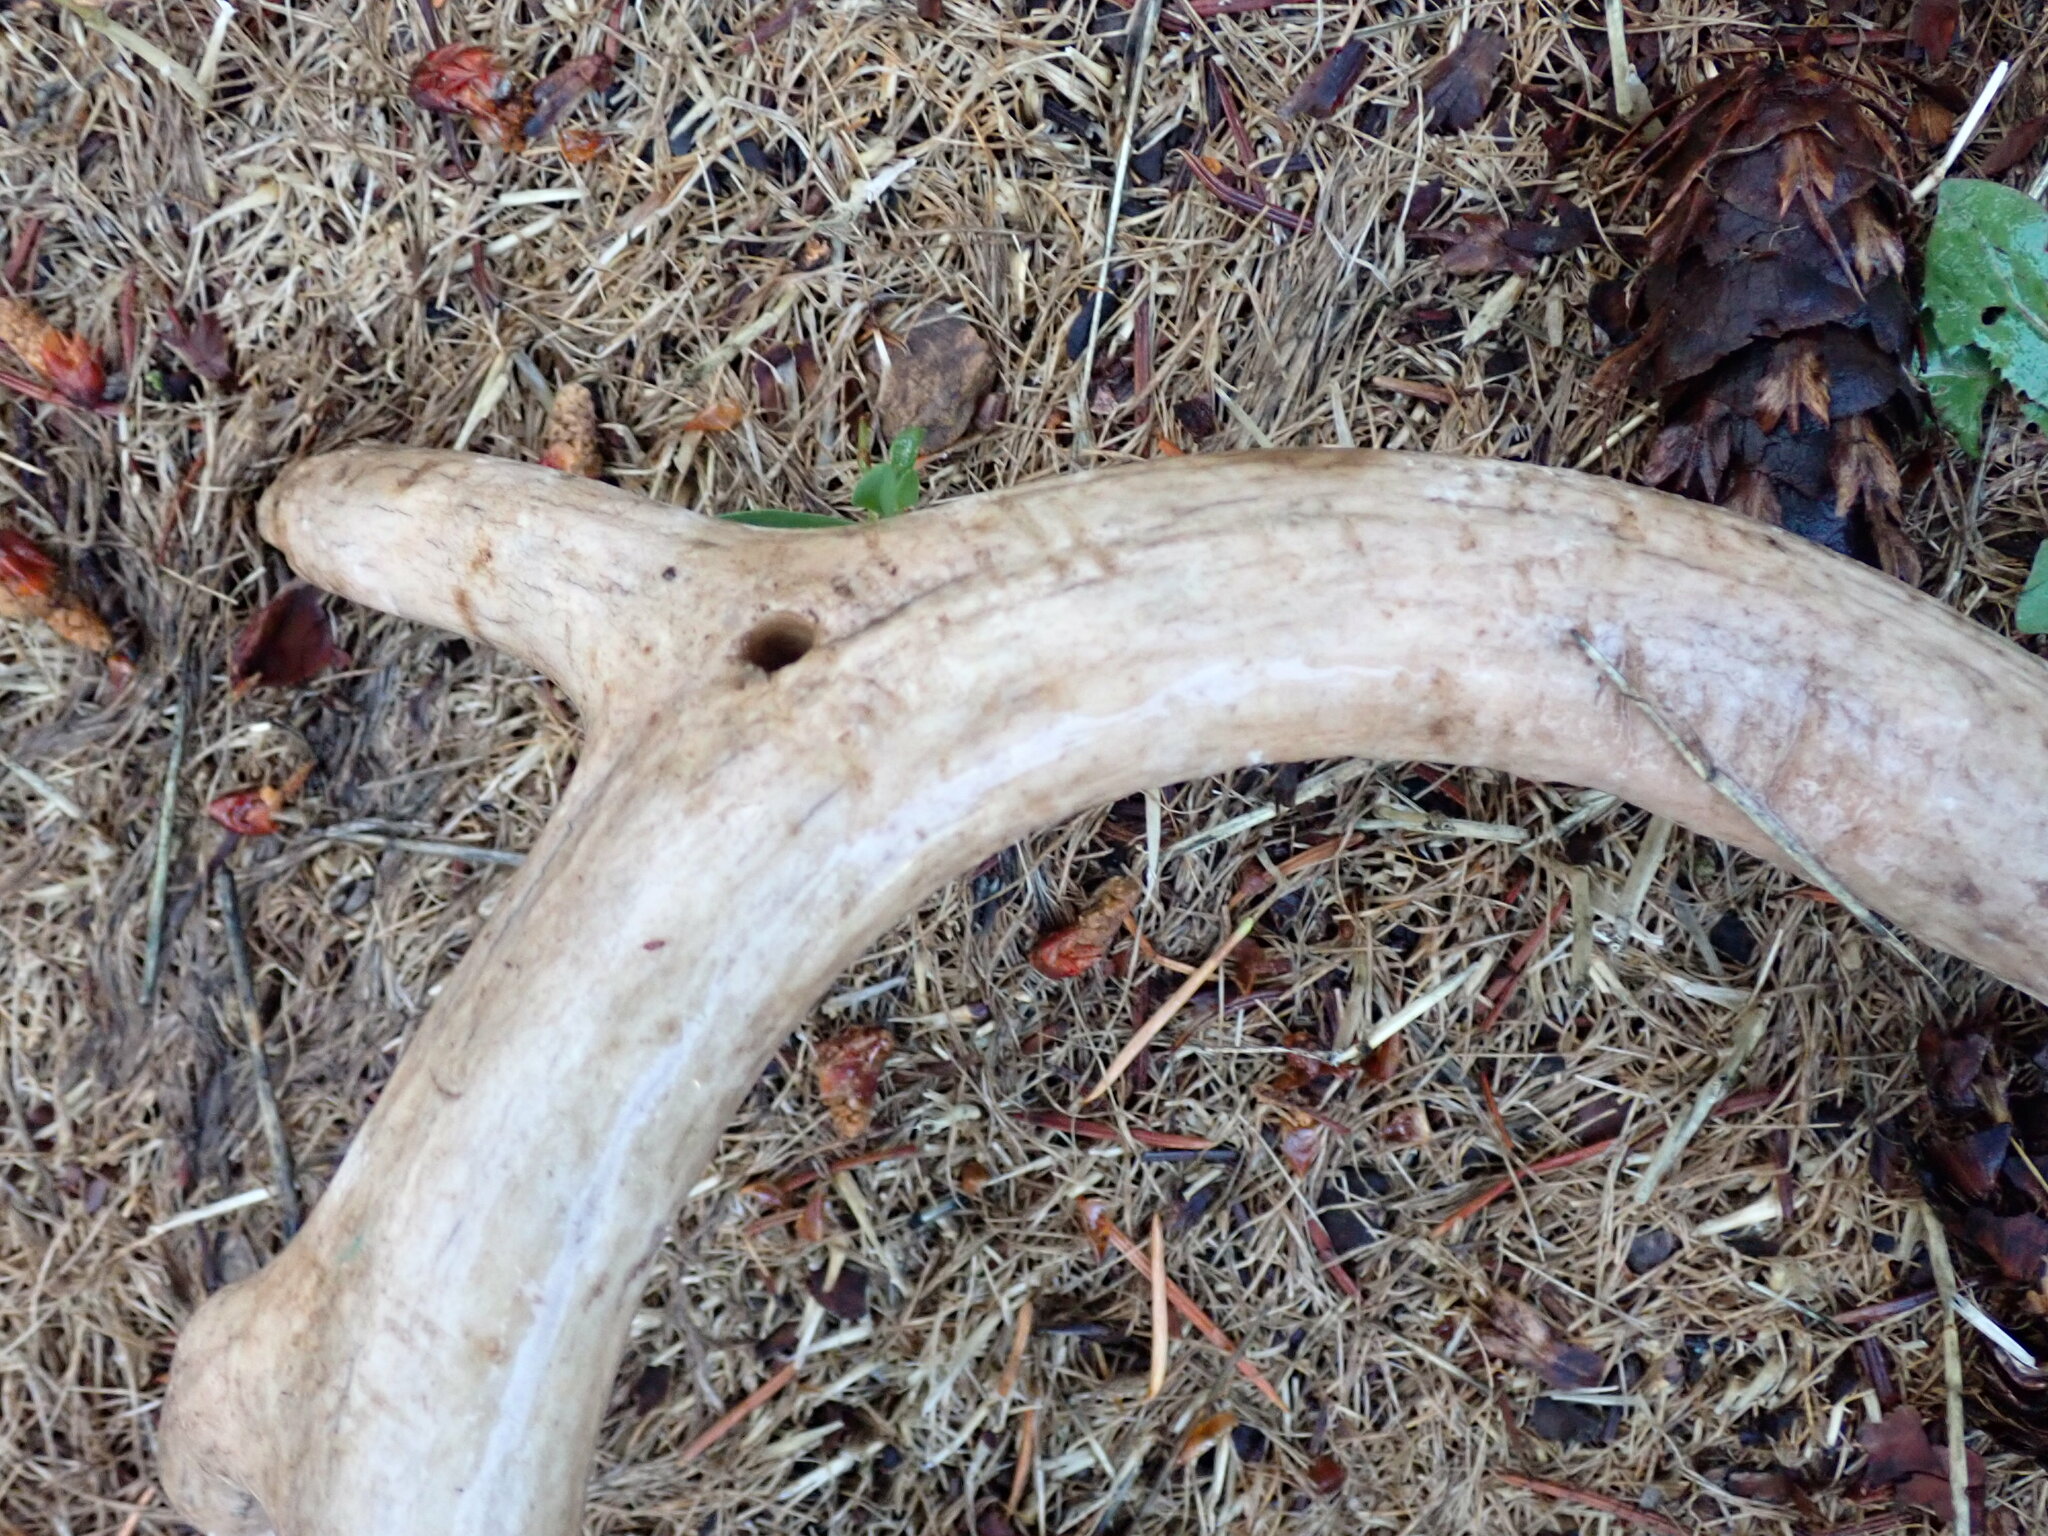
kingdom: Animalia
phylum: Chordata
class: Mammalia
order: Artiodactyla
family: Cervidae
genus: Odocoileus
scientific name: Odocoileus virginianus
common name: White-tailed deer
